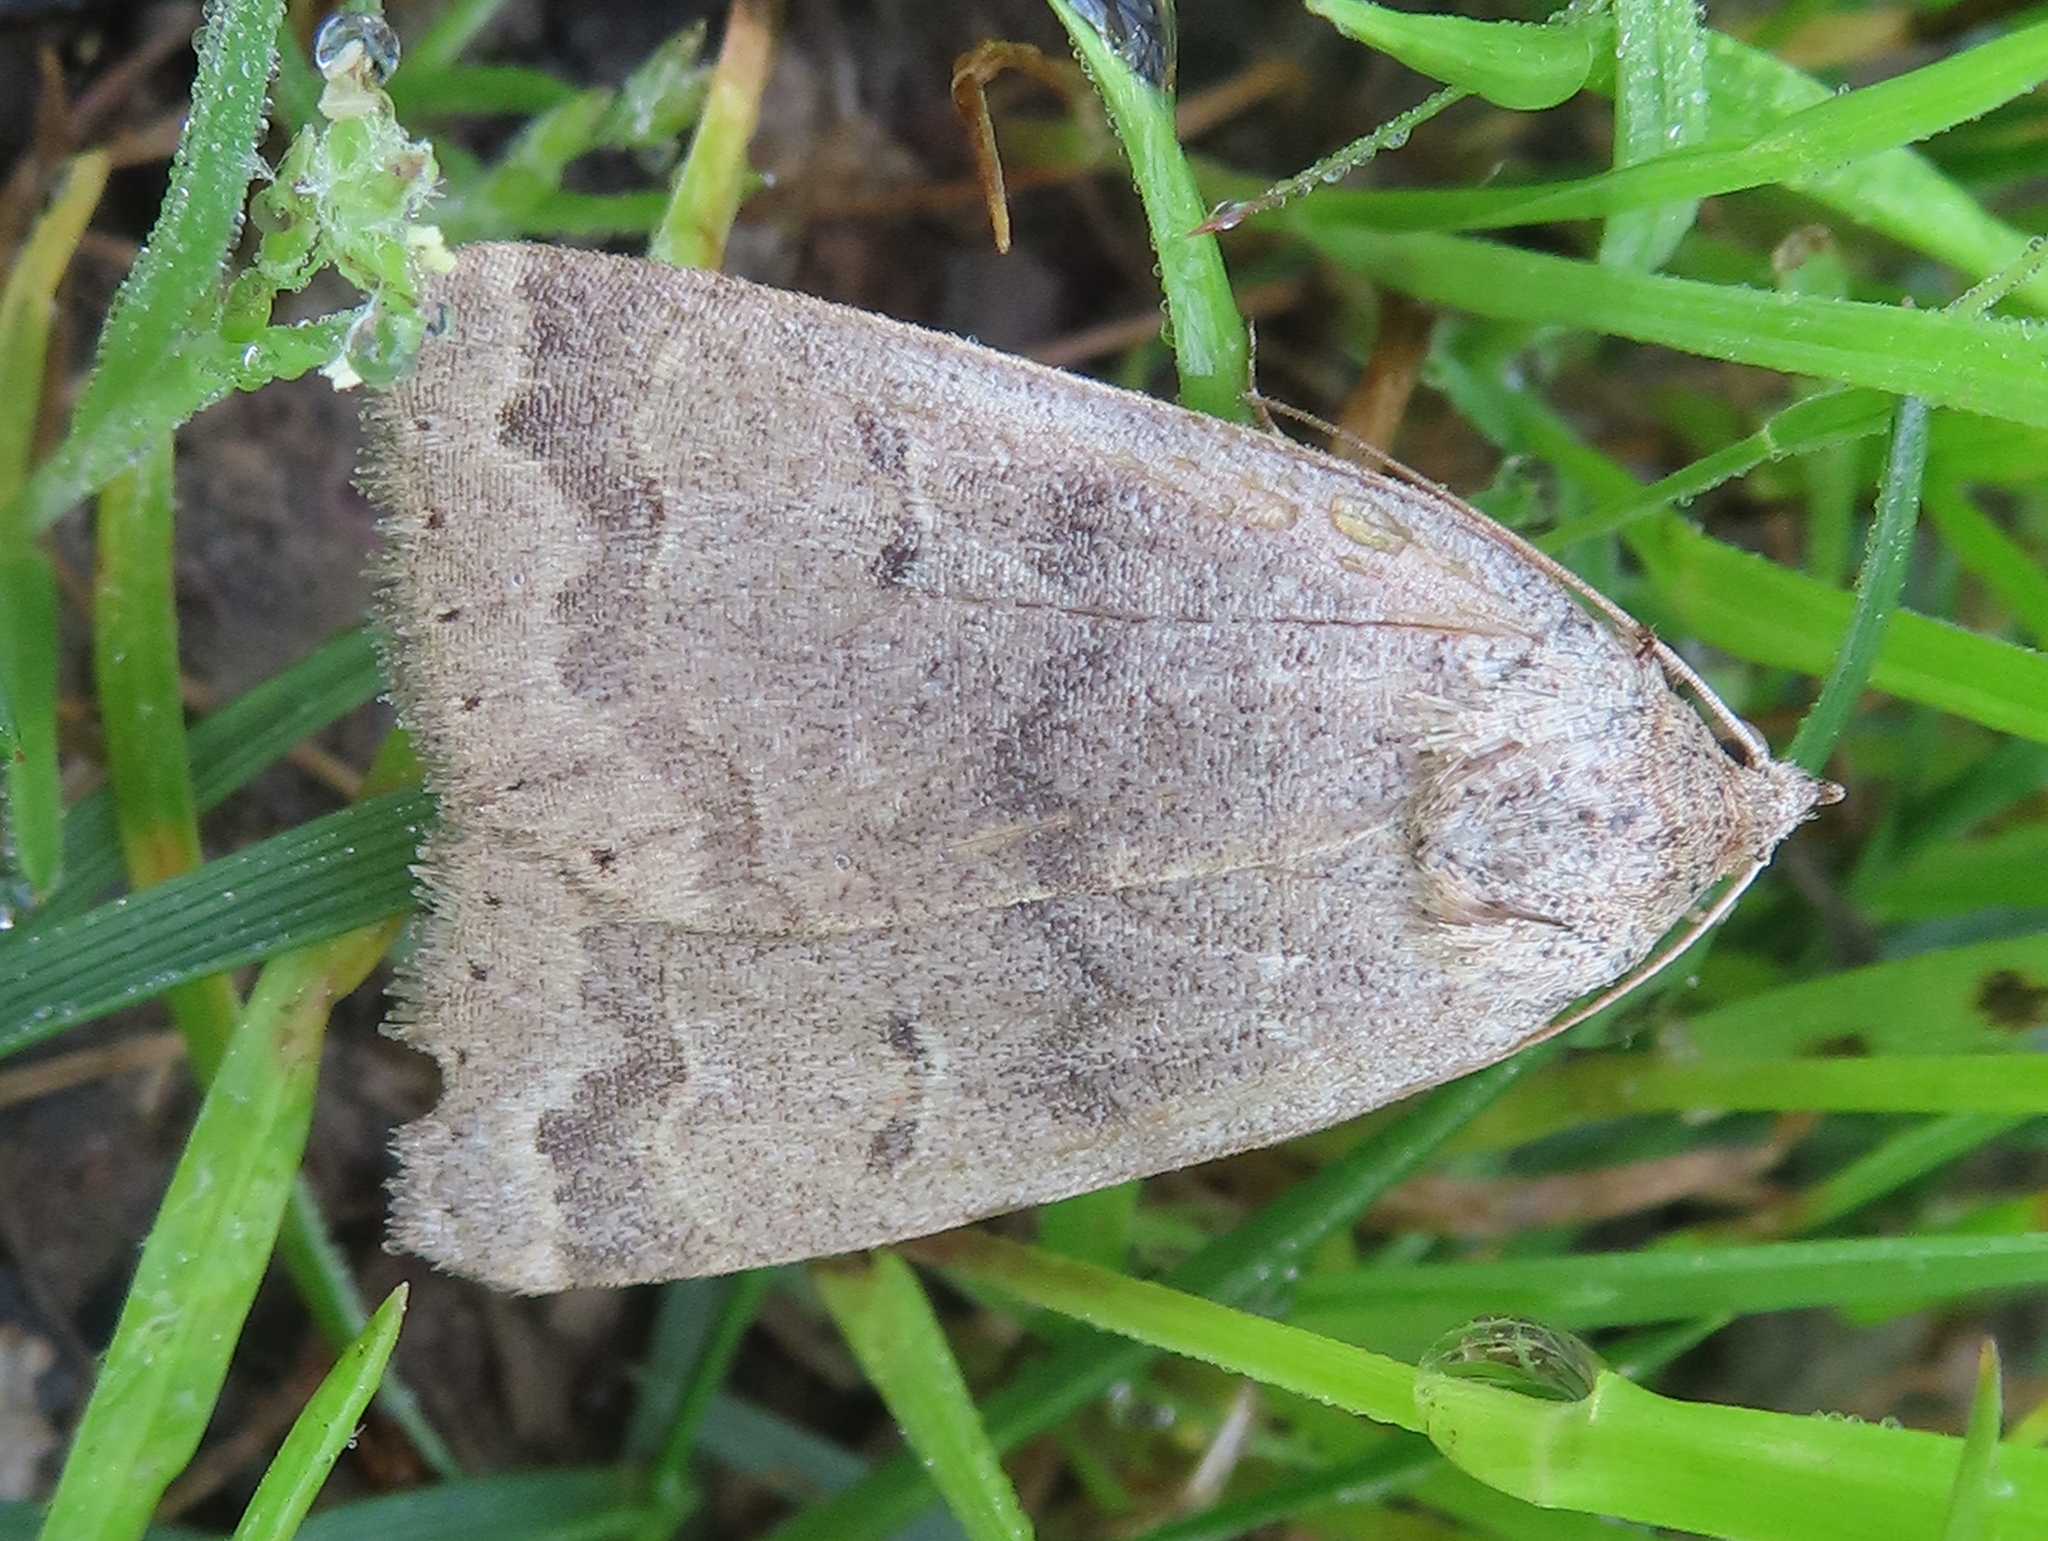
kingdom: Animalia
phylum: Arthropoda
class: Insecta
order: Lepidoptera
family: Erebidae
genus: Phoberia
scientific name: Phoberia atomaris
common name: Common oak moth
